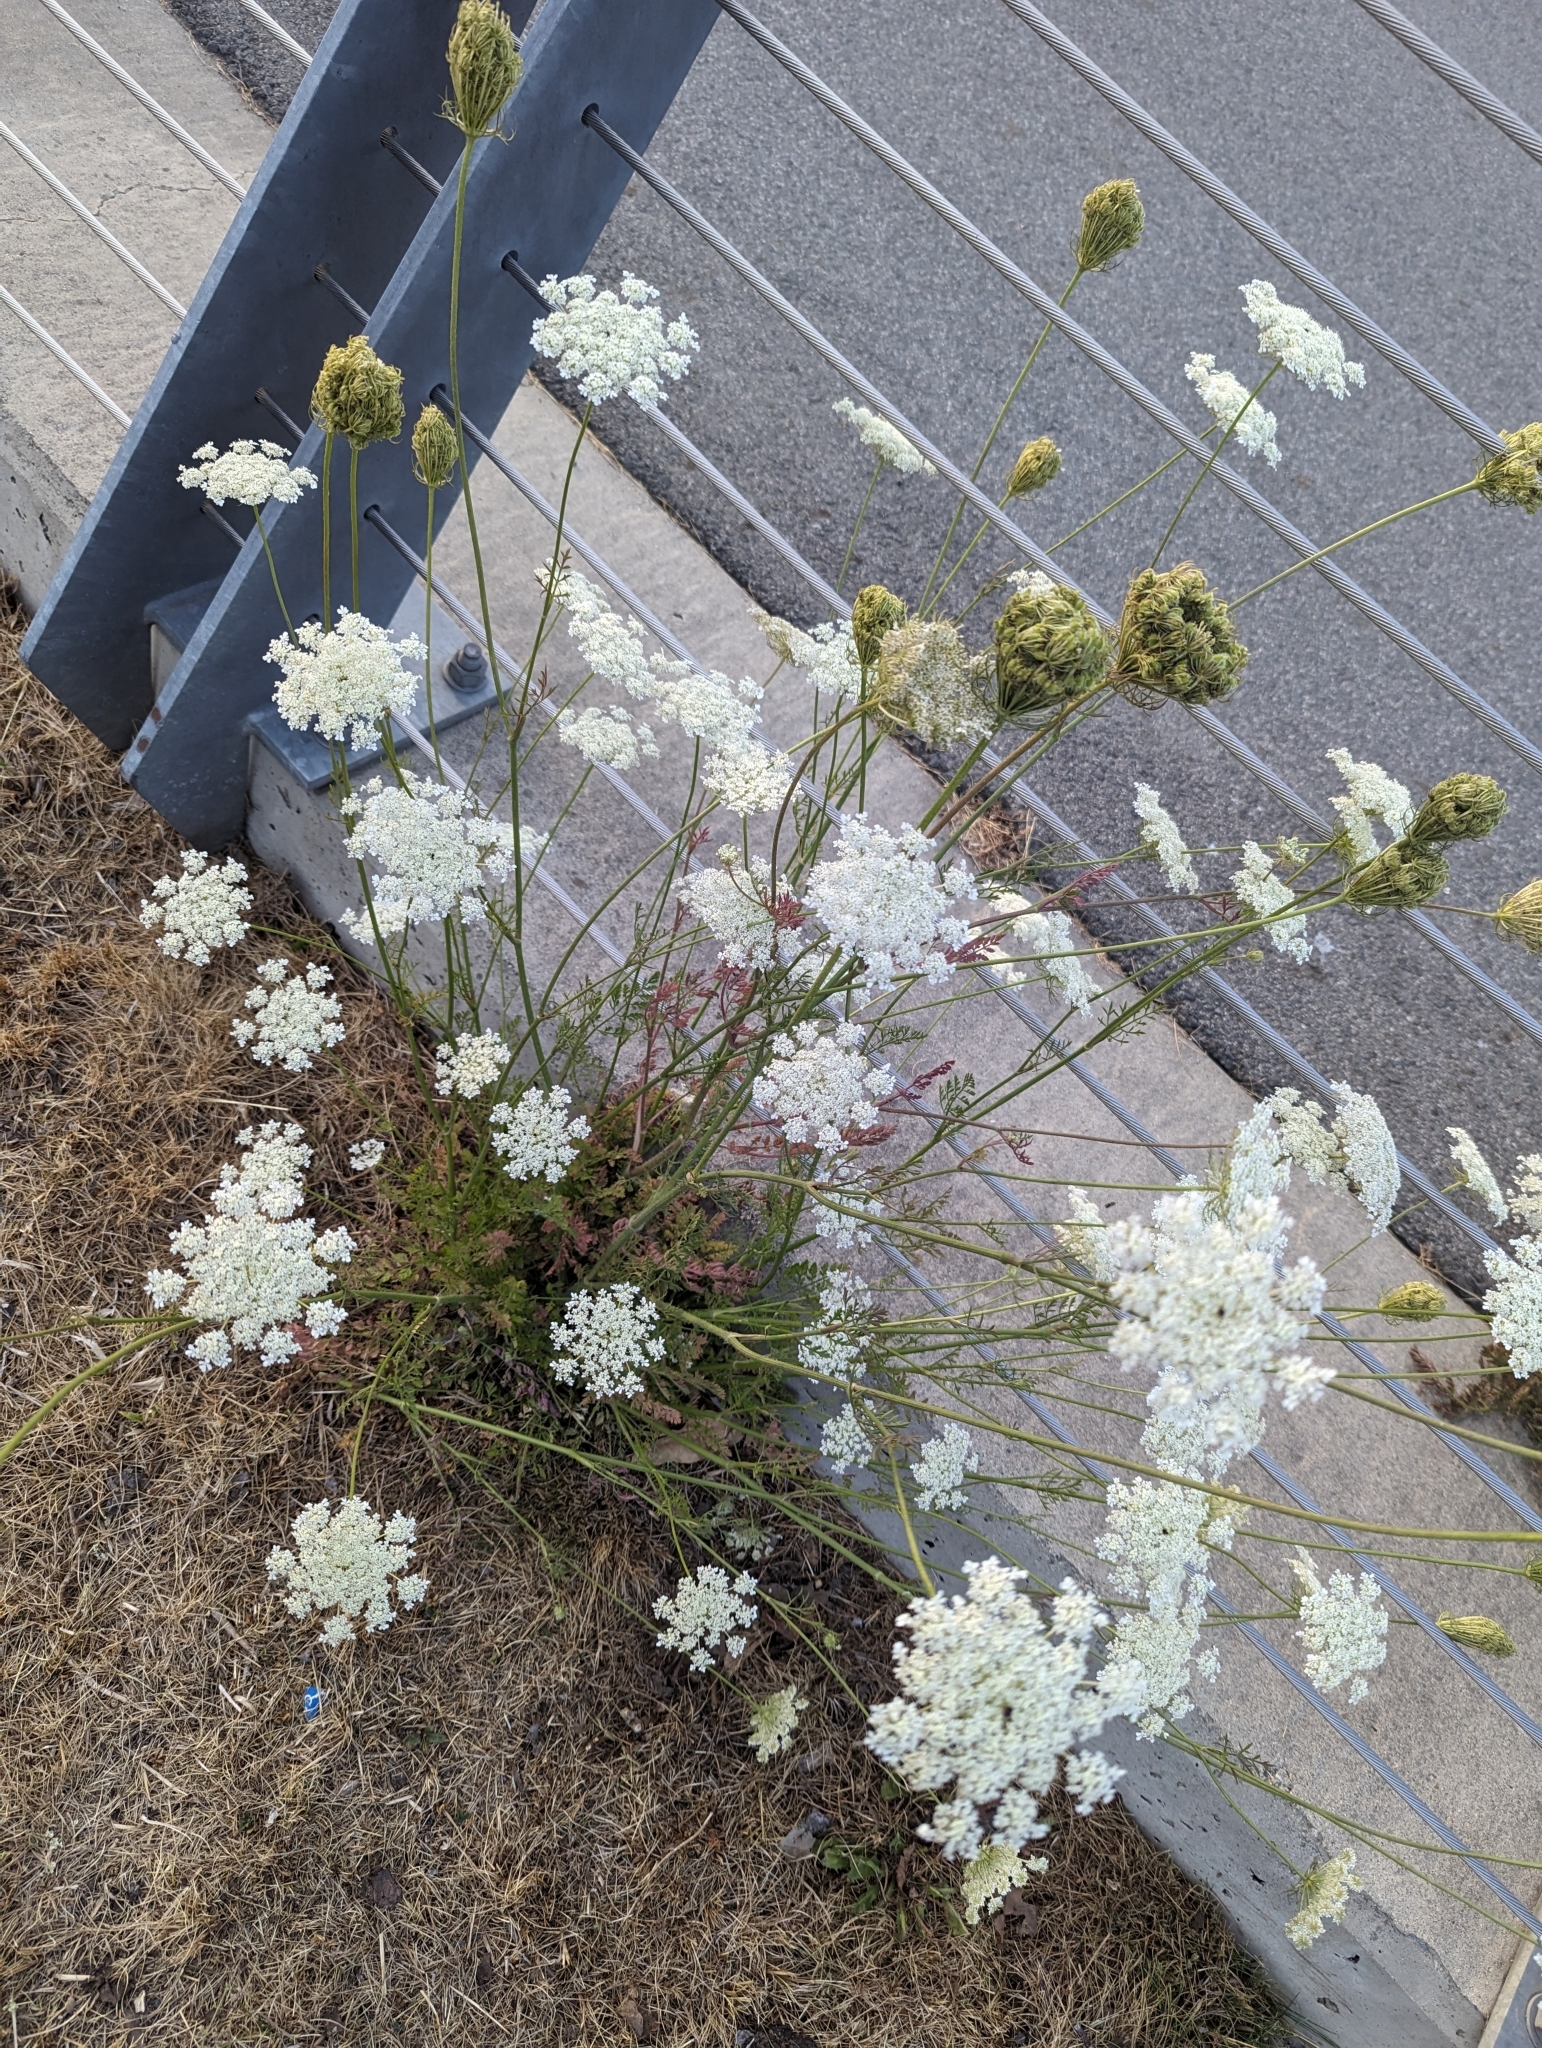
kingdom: Plantae
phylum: Tracheophyta
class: Magnoliopsida
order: Apiales
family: Apiaceae
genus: Daucus
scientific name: Daucus carota
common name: Wild carrot
